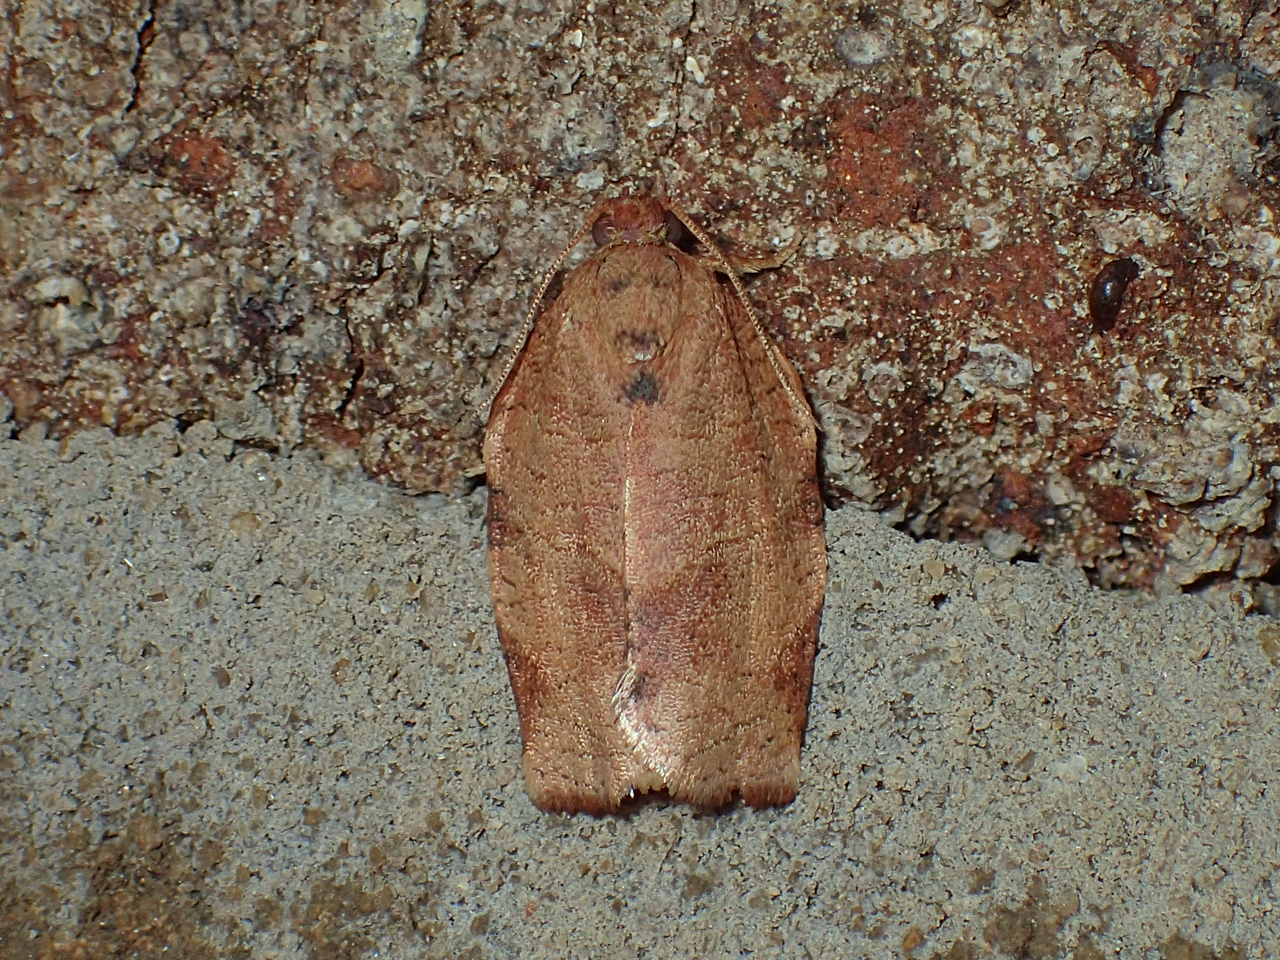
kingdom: Animalia
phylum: Arthropoda
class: Insecta
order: Lepidoptera
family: Tortricidae
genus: Choristoneura
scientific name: Choristoneura rosaceana
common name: Oblique-banded leafroller moth
